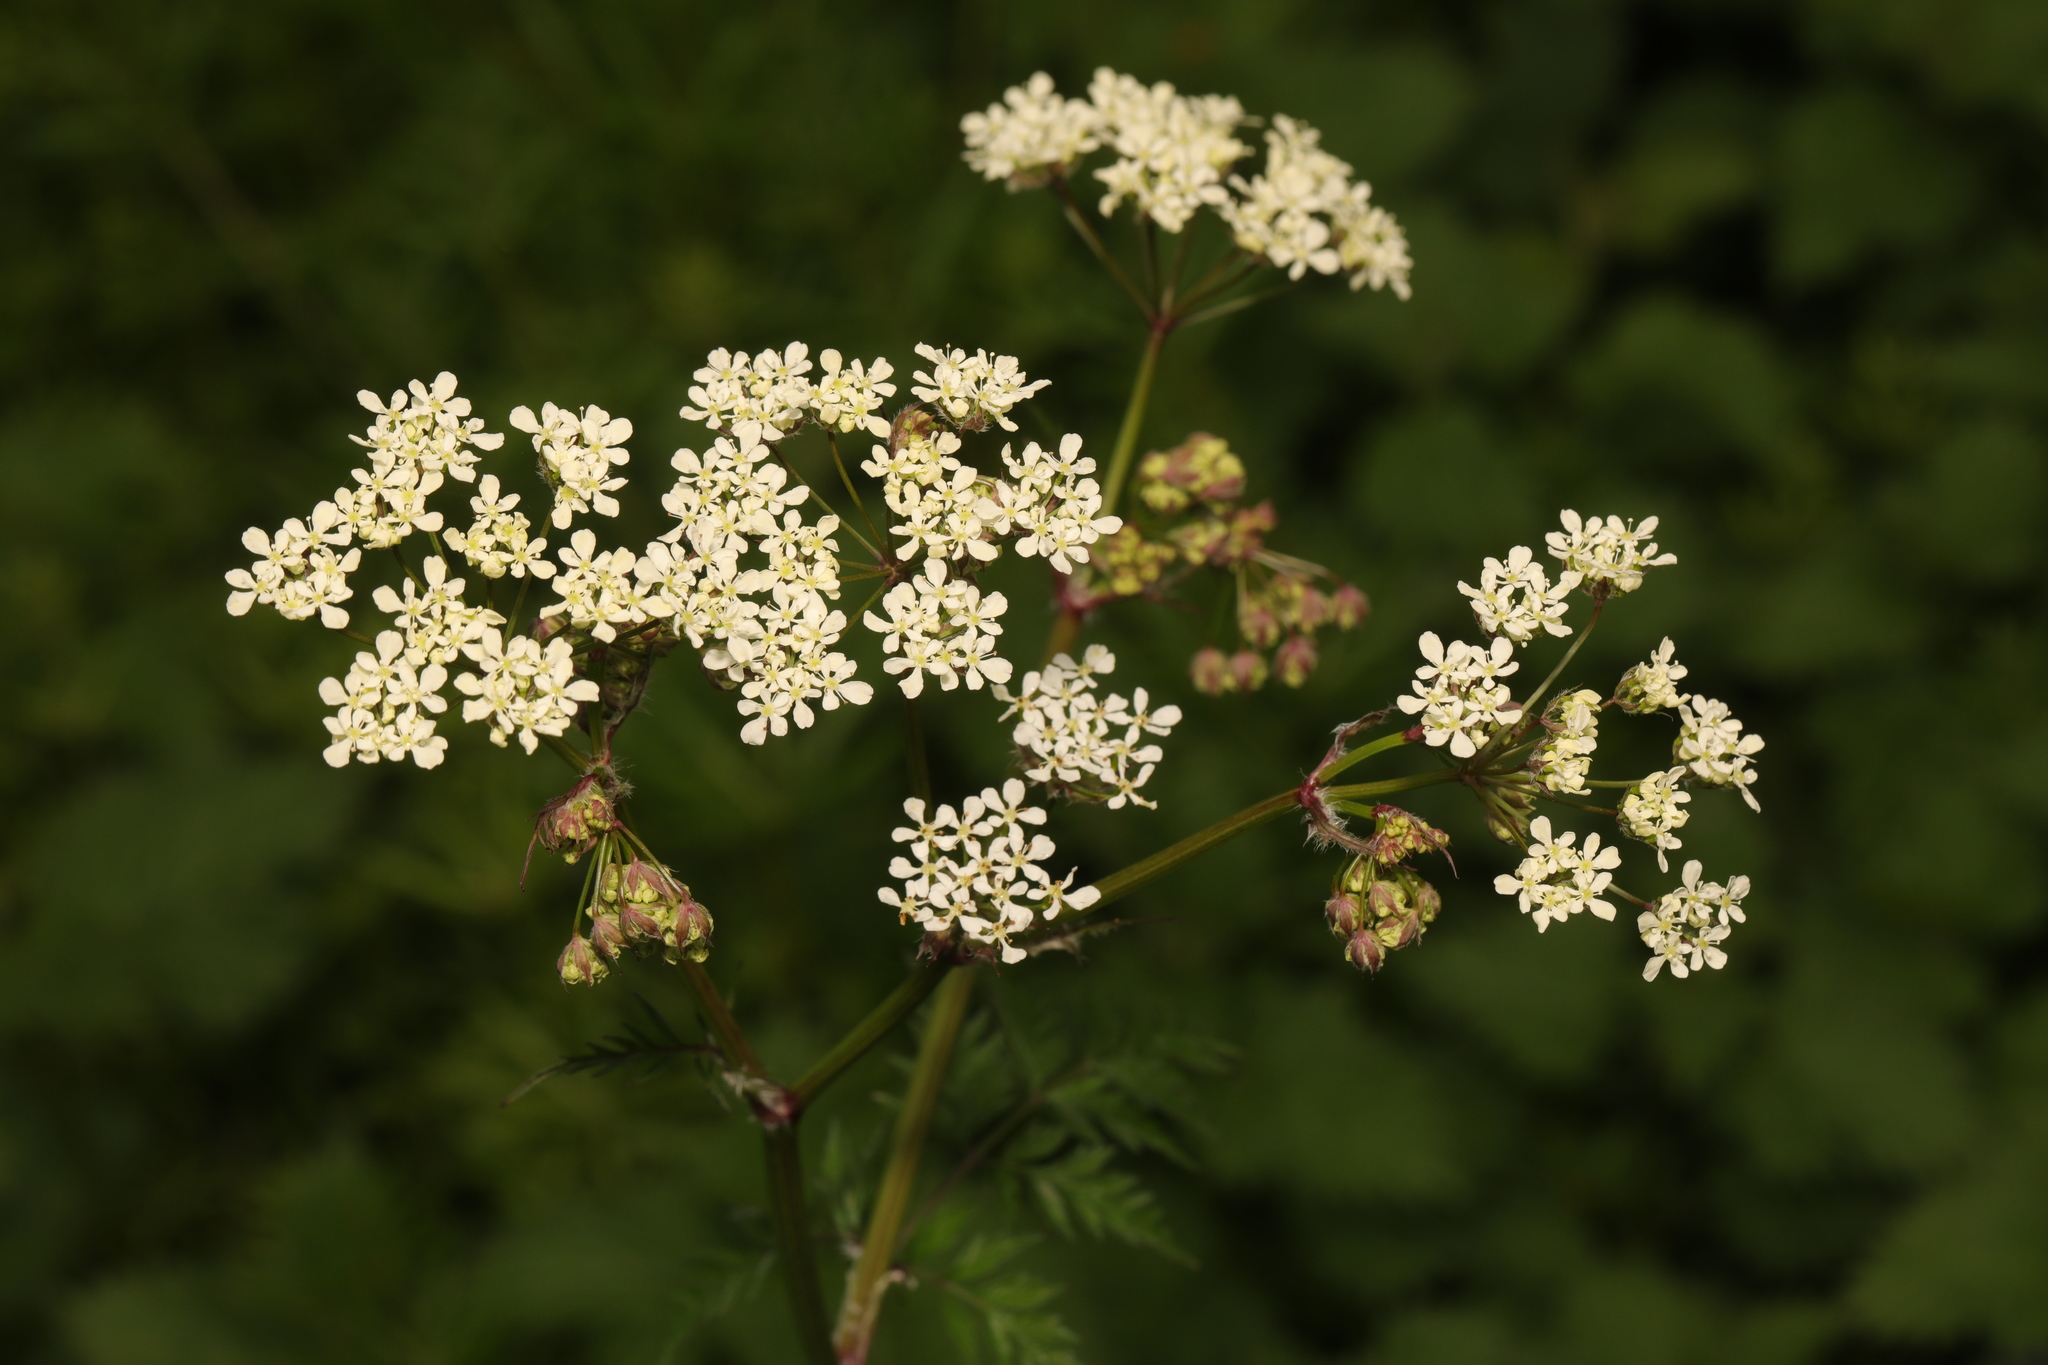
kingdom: Plantae
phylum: Tracheophyta
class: Magnoliopsida
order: Apiales
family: Apiaceae
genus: Anthriscus
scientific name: Anthriscus sylvestris
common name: Cow parsley
